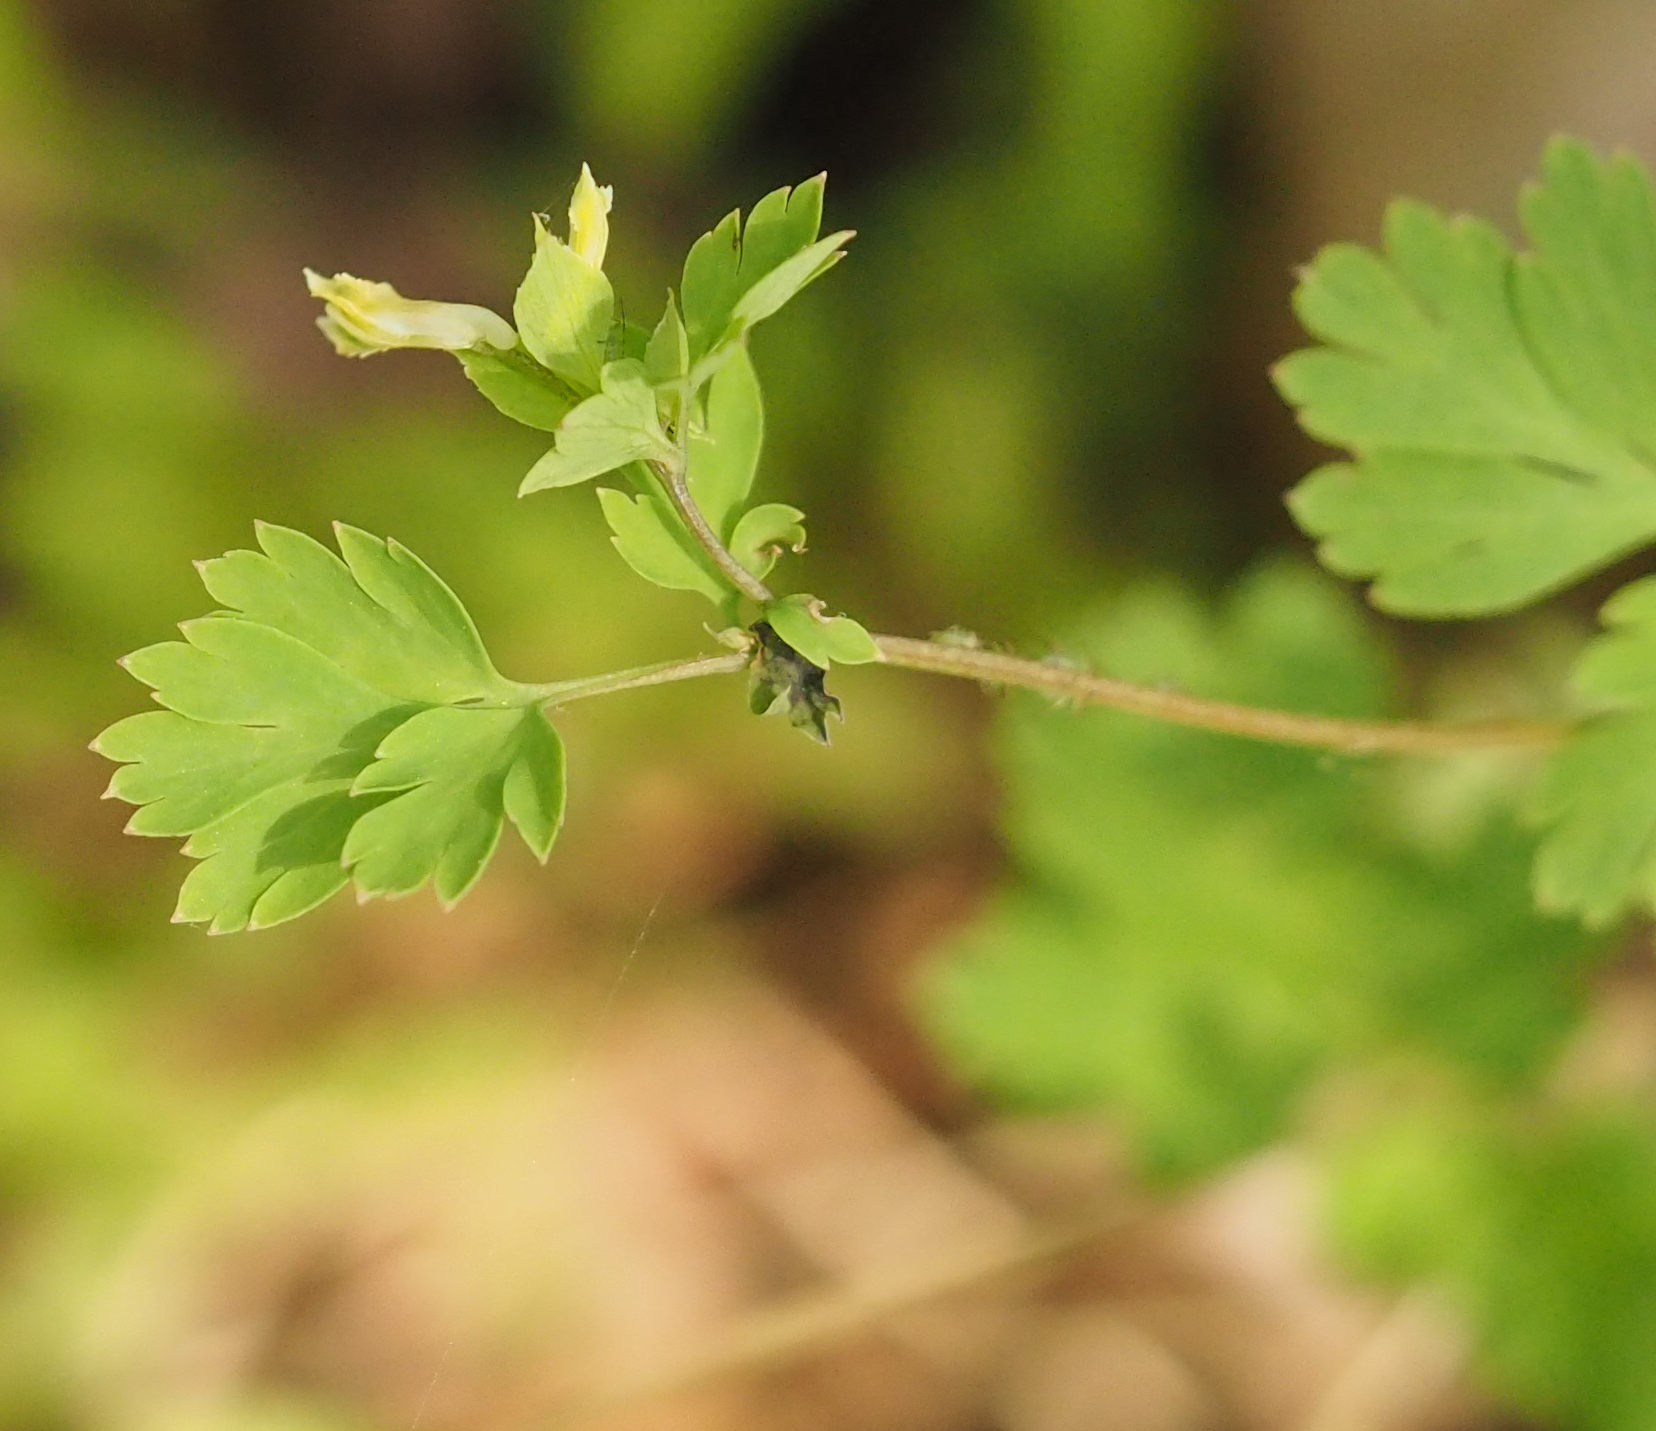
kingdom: Plantae
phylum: Tracheophyta
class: Magnoliopsida
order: Ranunculales
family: Papaveraceae
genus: Corydalis
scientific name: Corydalis flavula
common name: Yellow corydalis
